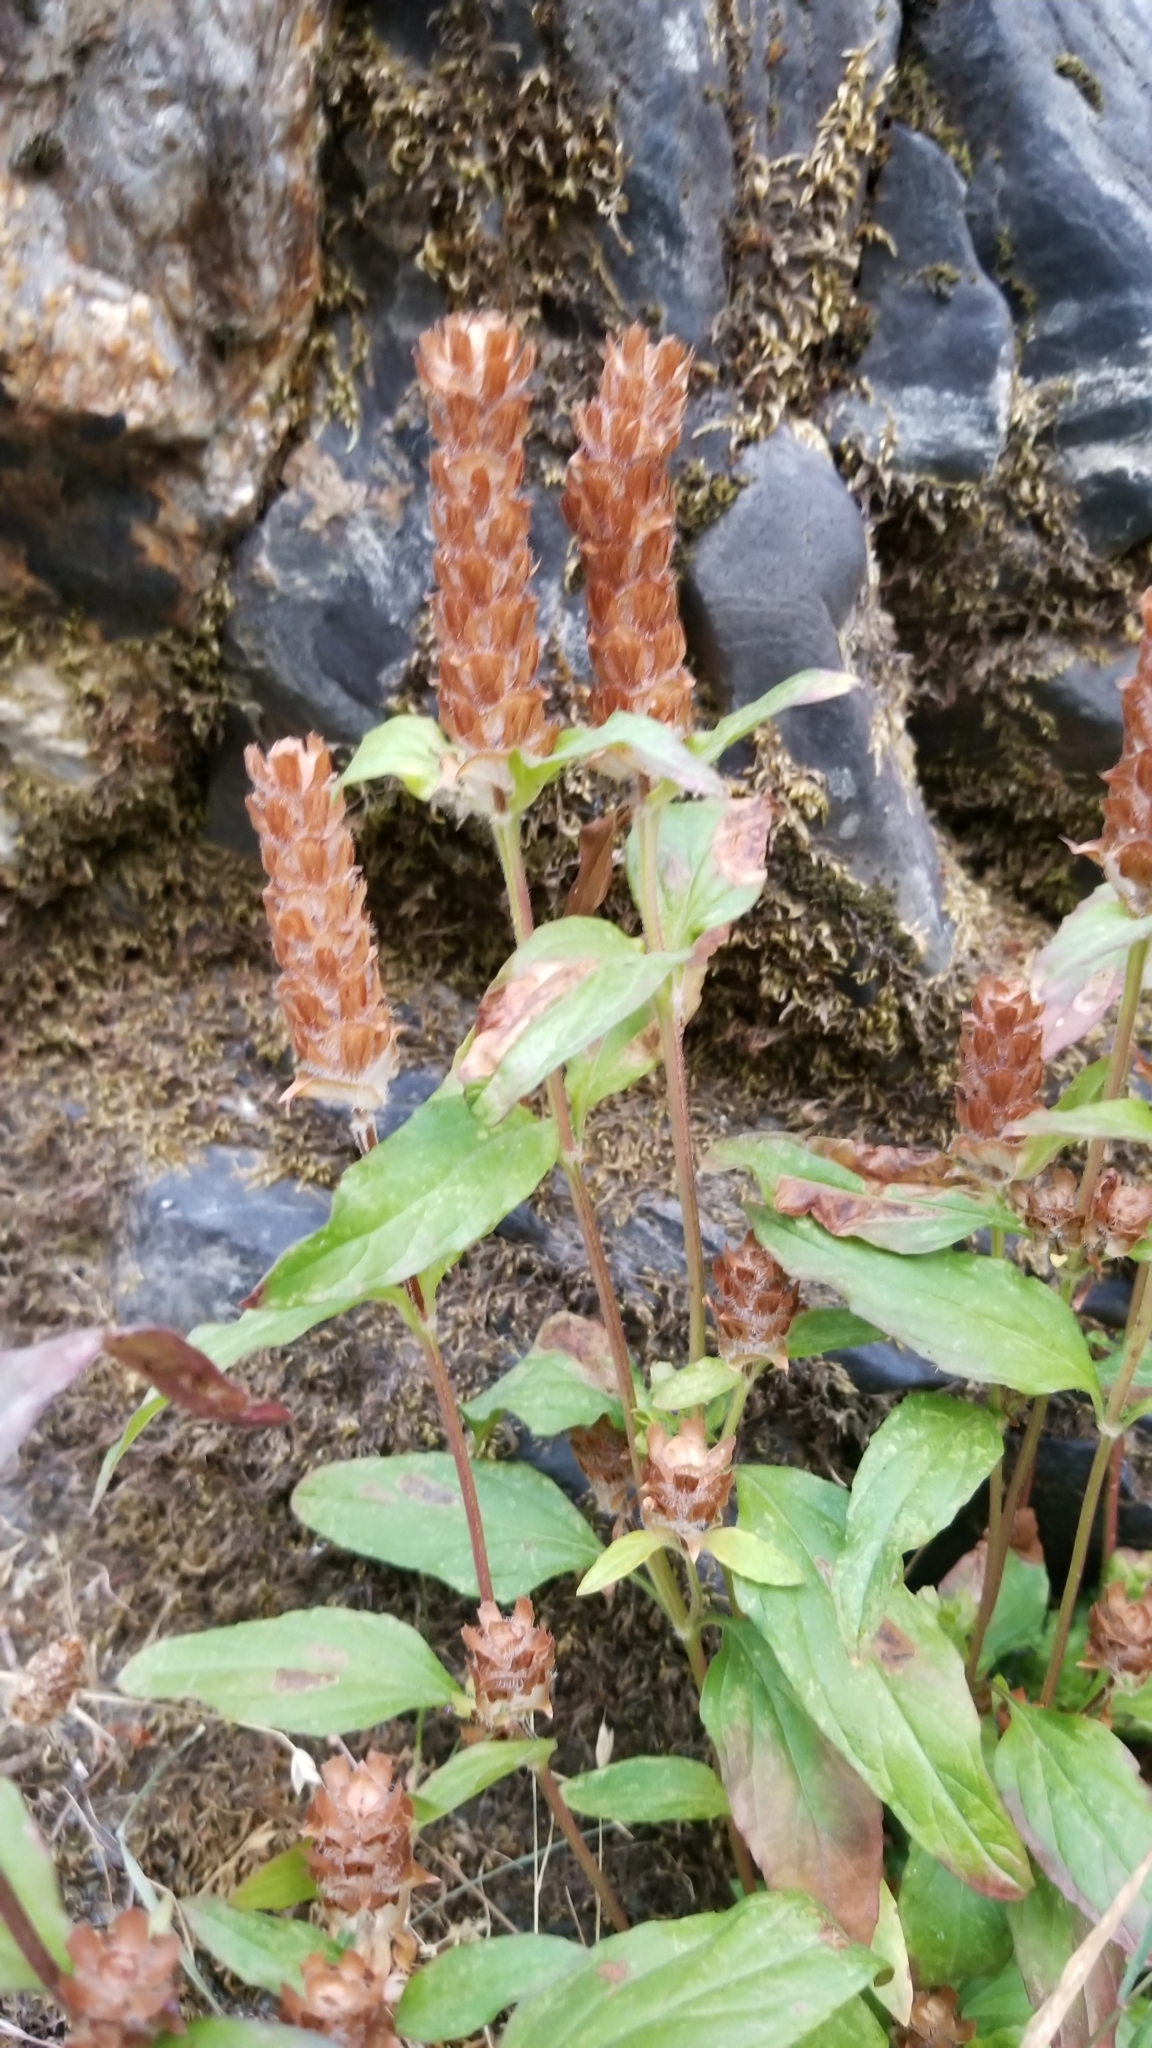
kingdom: Plantae
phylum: Tracheophyta
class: Magnoliopsida
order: Lamiales
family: Lamiaceae
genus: Prunella
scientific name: Prunella vulgaris
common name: Heal-all
